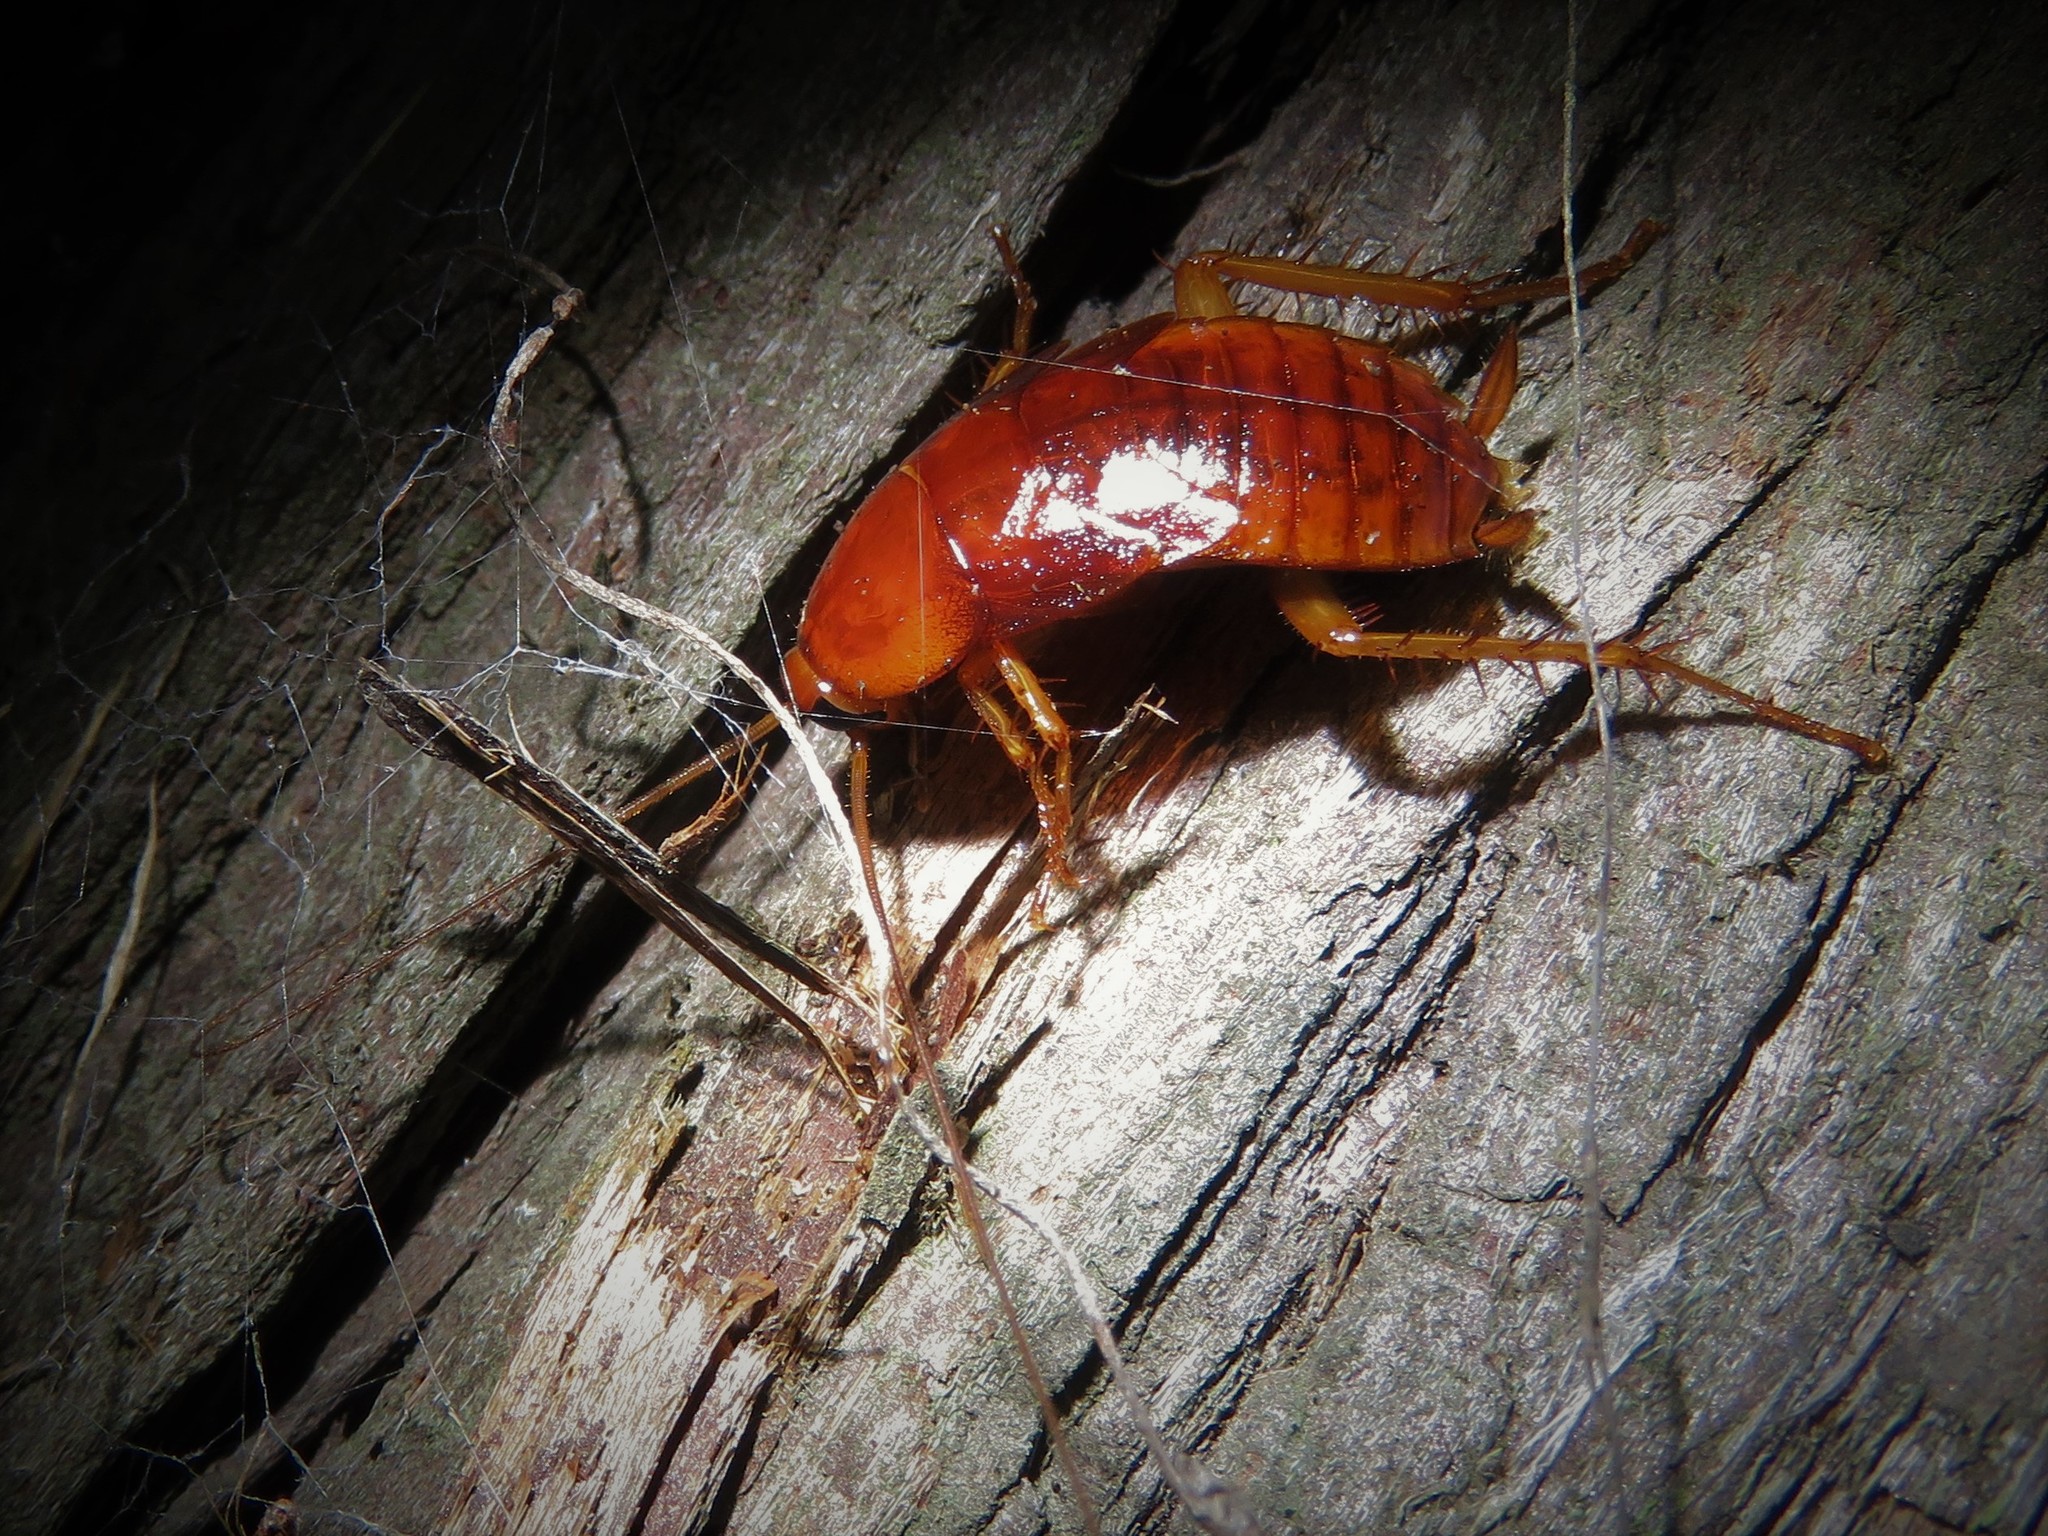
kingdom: Animalia
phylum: Arthropoda
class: Insecta
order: Blattodea
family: Blattidae
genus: Periplaneta
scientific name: Periplaneta americana
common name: American cockroach
